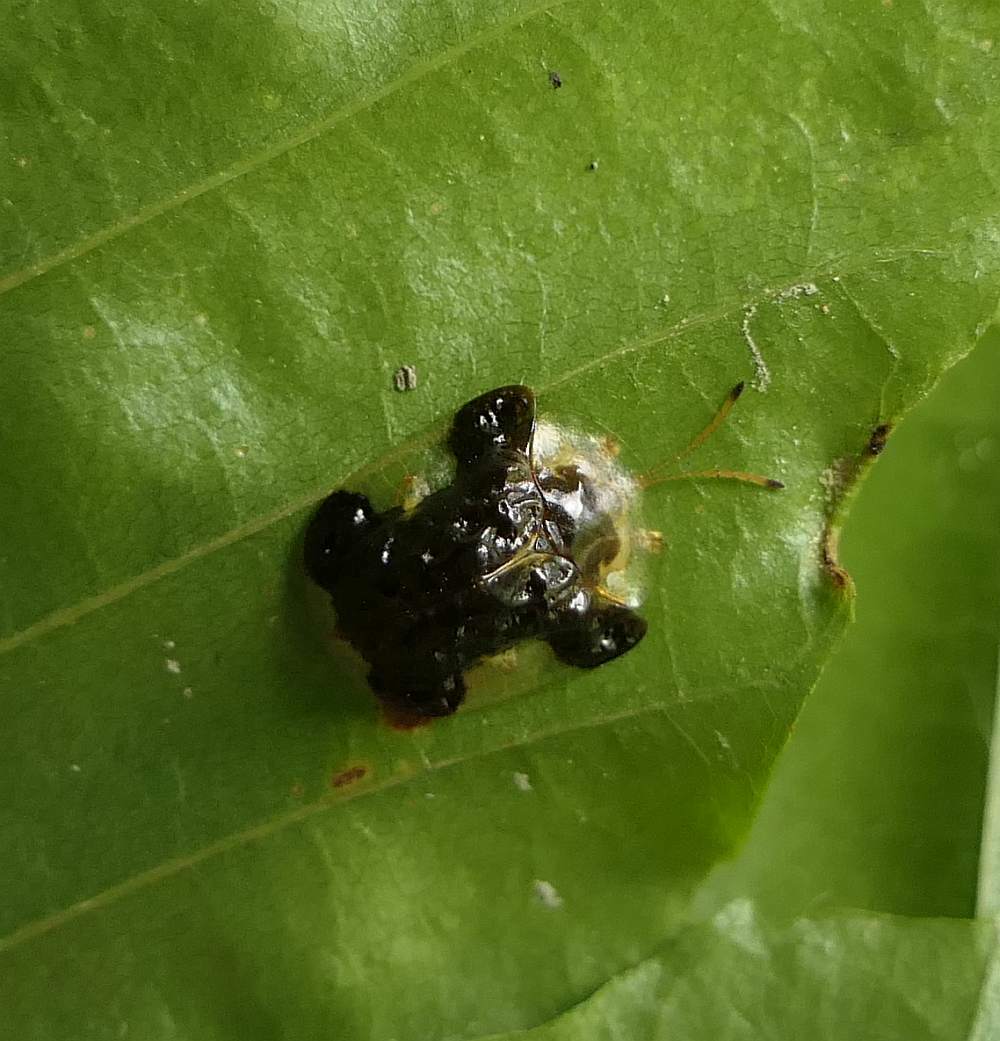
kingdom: Animalia
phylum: Arthropoda
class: Insecta
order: Coleoptera
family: Chrysomelidae
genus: Helocassis
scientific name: Helocassis clavata
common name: Clavate tortoise beetle
